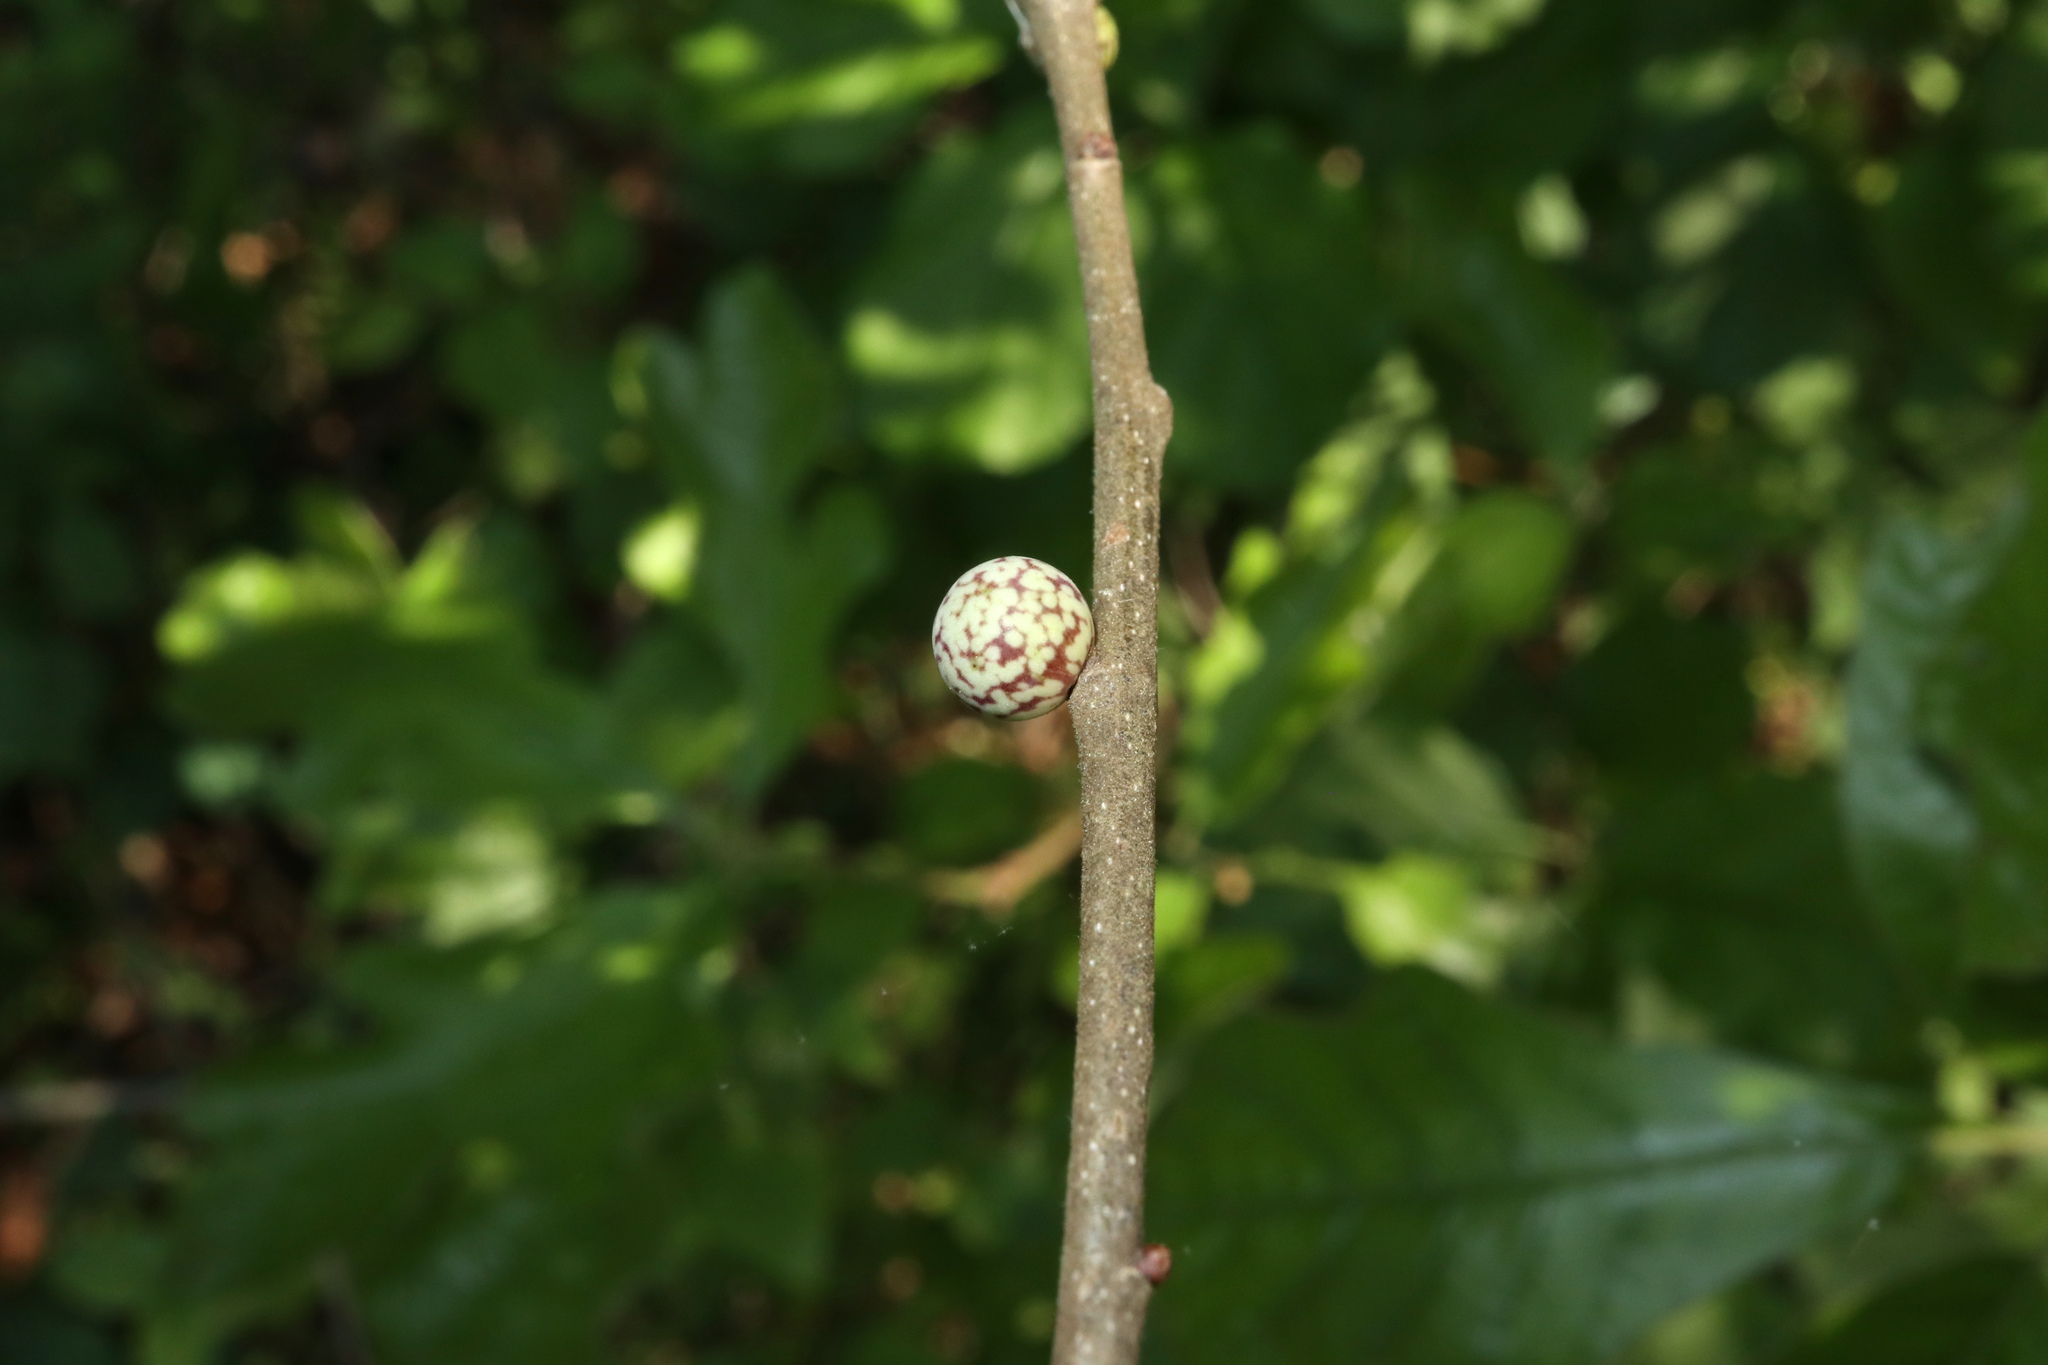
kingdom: Animalia
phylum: Arthropoda
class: Insecta
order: Hymenoptera
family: Cynipidae
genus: Andricus
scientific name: Andricus
